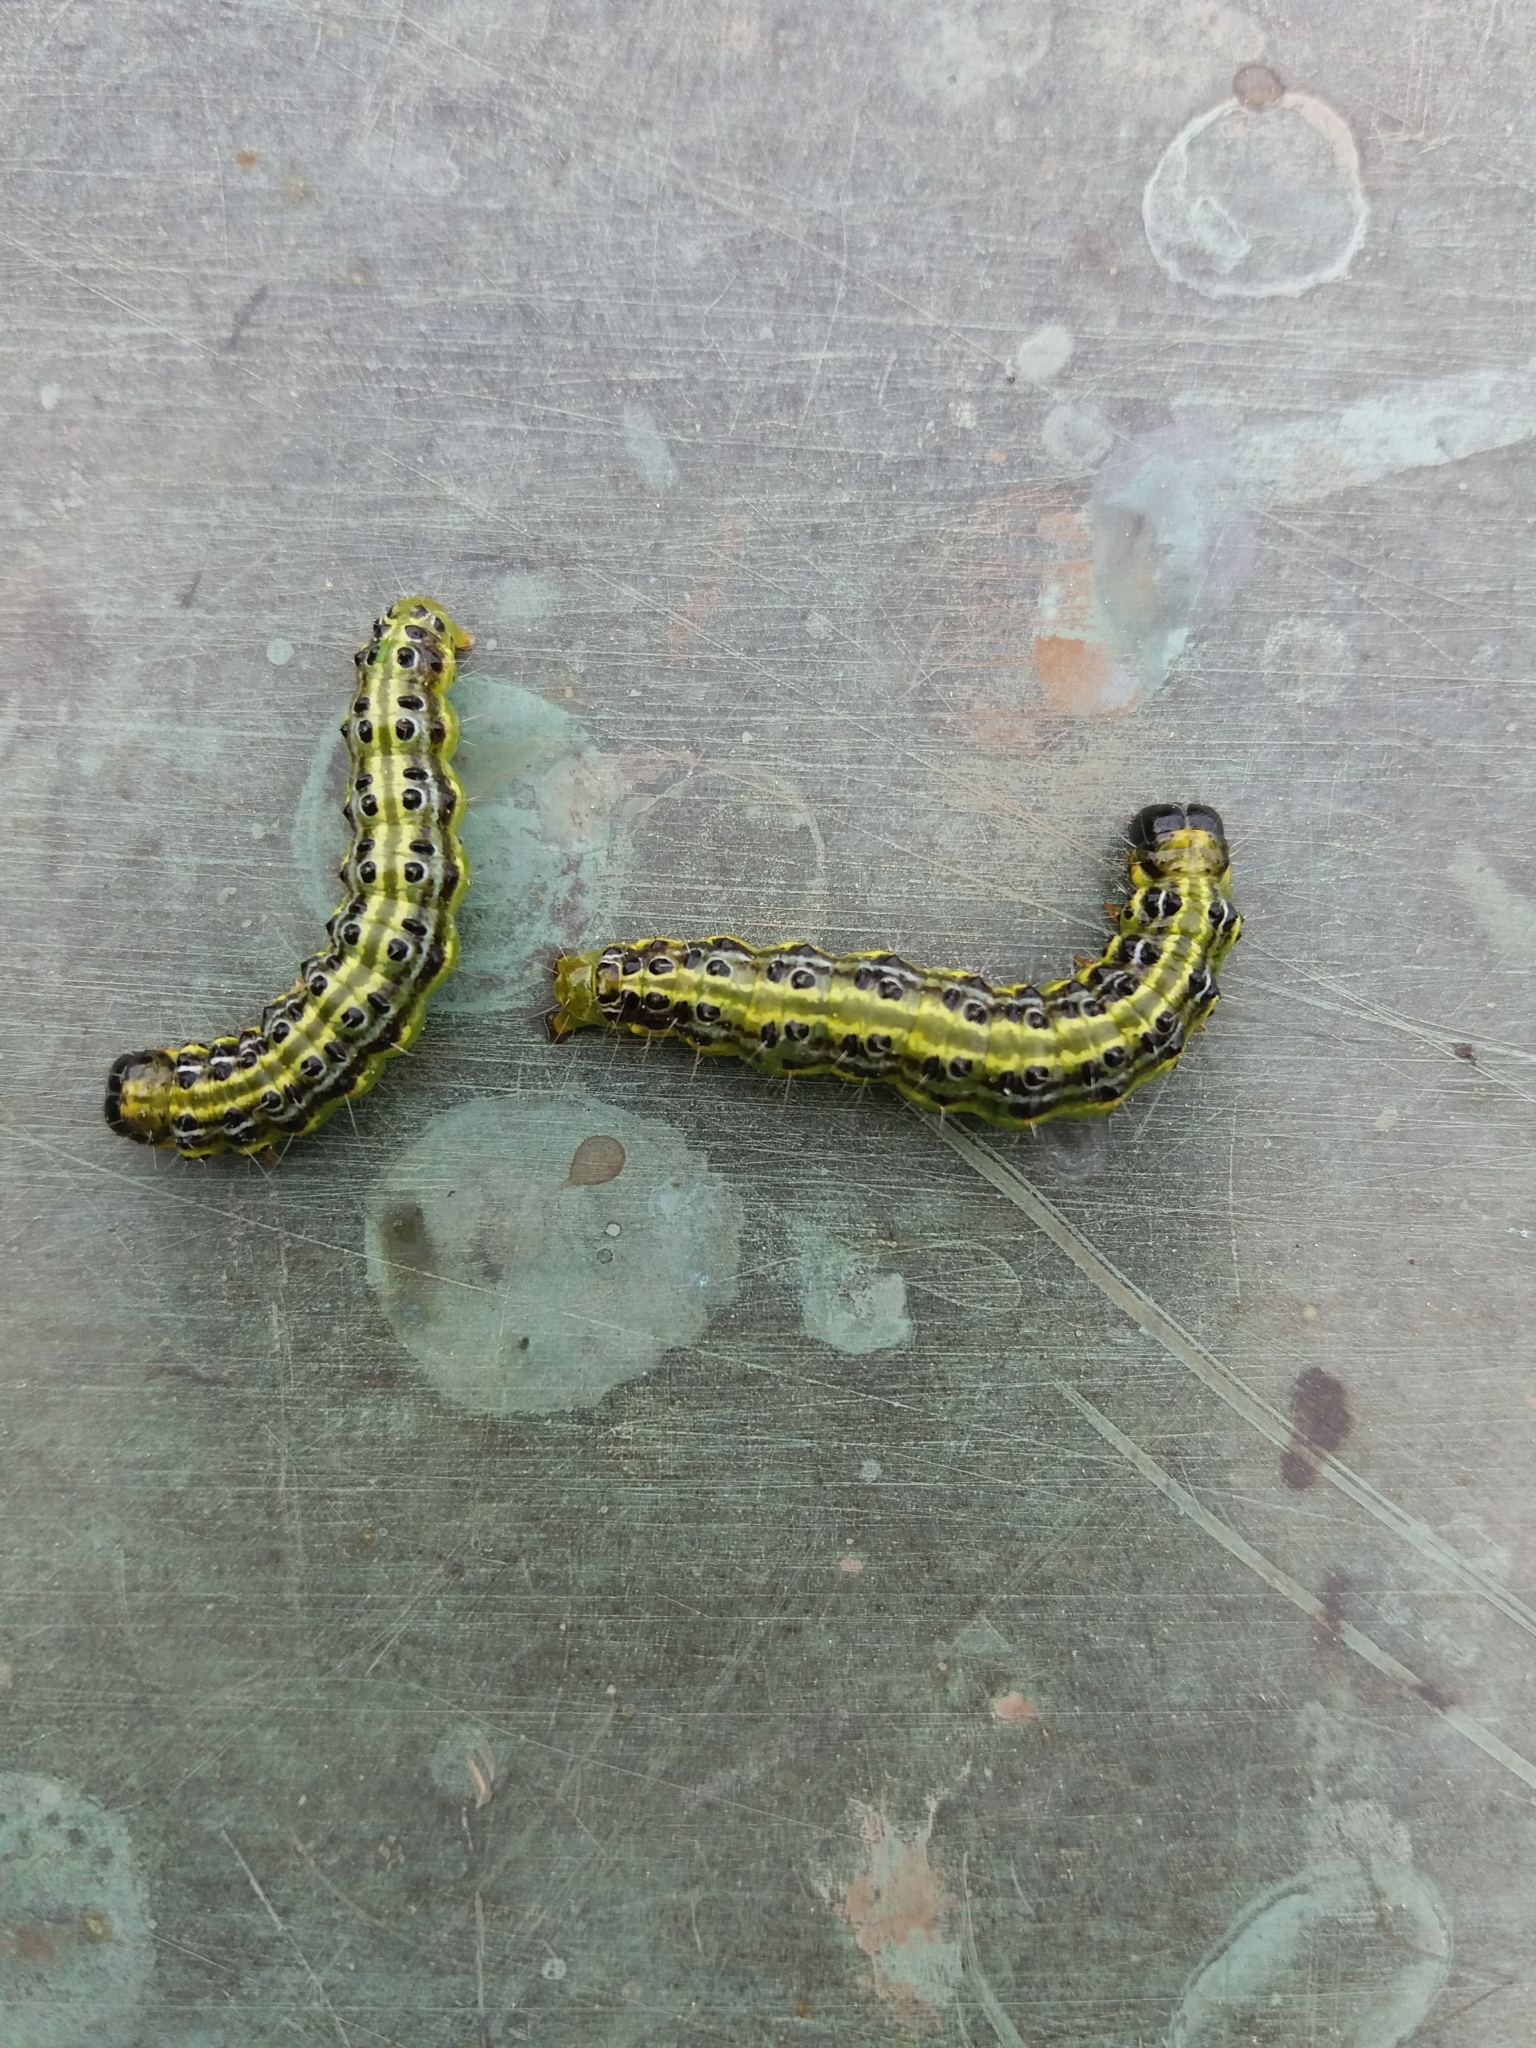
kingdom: Animalia
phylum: Arthropoda
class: Insecta
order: Lepidoptera
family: Crambidae
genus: Cydalima
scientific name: Cydalima perspectalis
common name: Box tree moth
